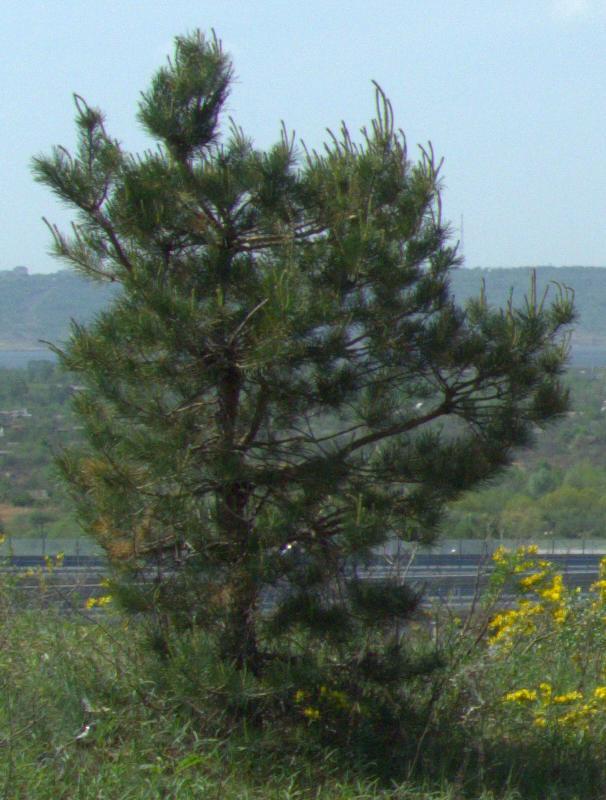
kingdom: Plantae
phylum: Tracheophyta
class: Pinopsida
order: Pinales
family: Pinaceae
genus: Pinus
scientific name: Pinus sylvestris
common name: Scots pine
